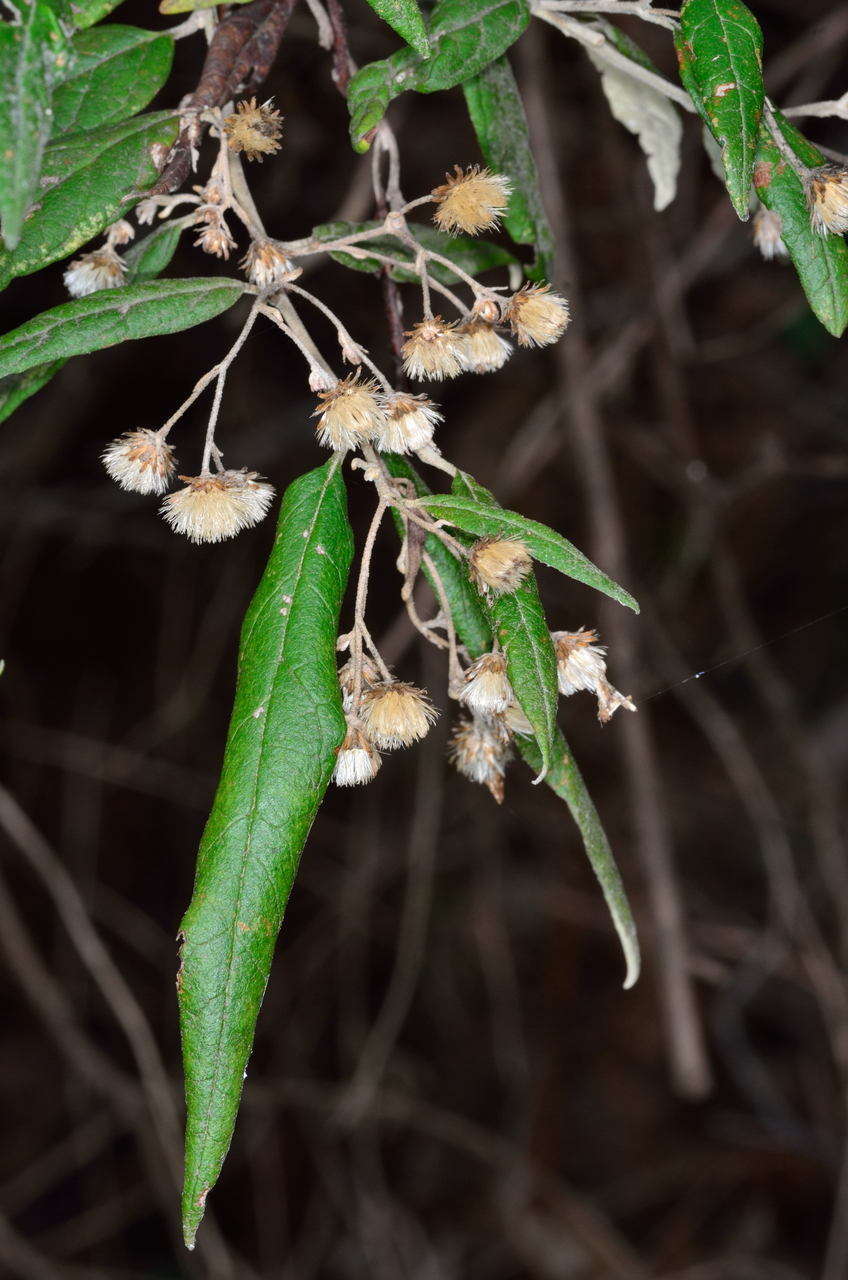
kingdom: Plantae
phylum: Tracheophyta
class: Magnoliopsida
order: Asterales
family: Asteraceae
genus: Olearia
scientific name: Olearia lirata
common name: Dusty daisybush
